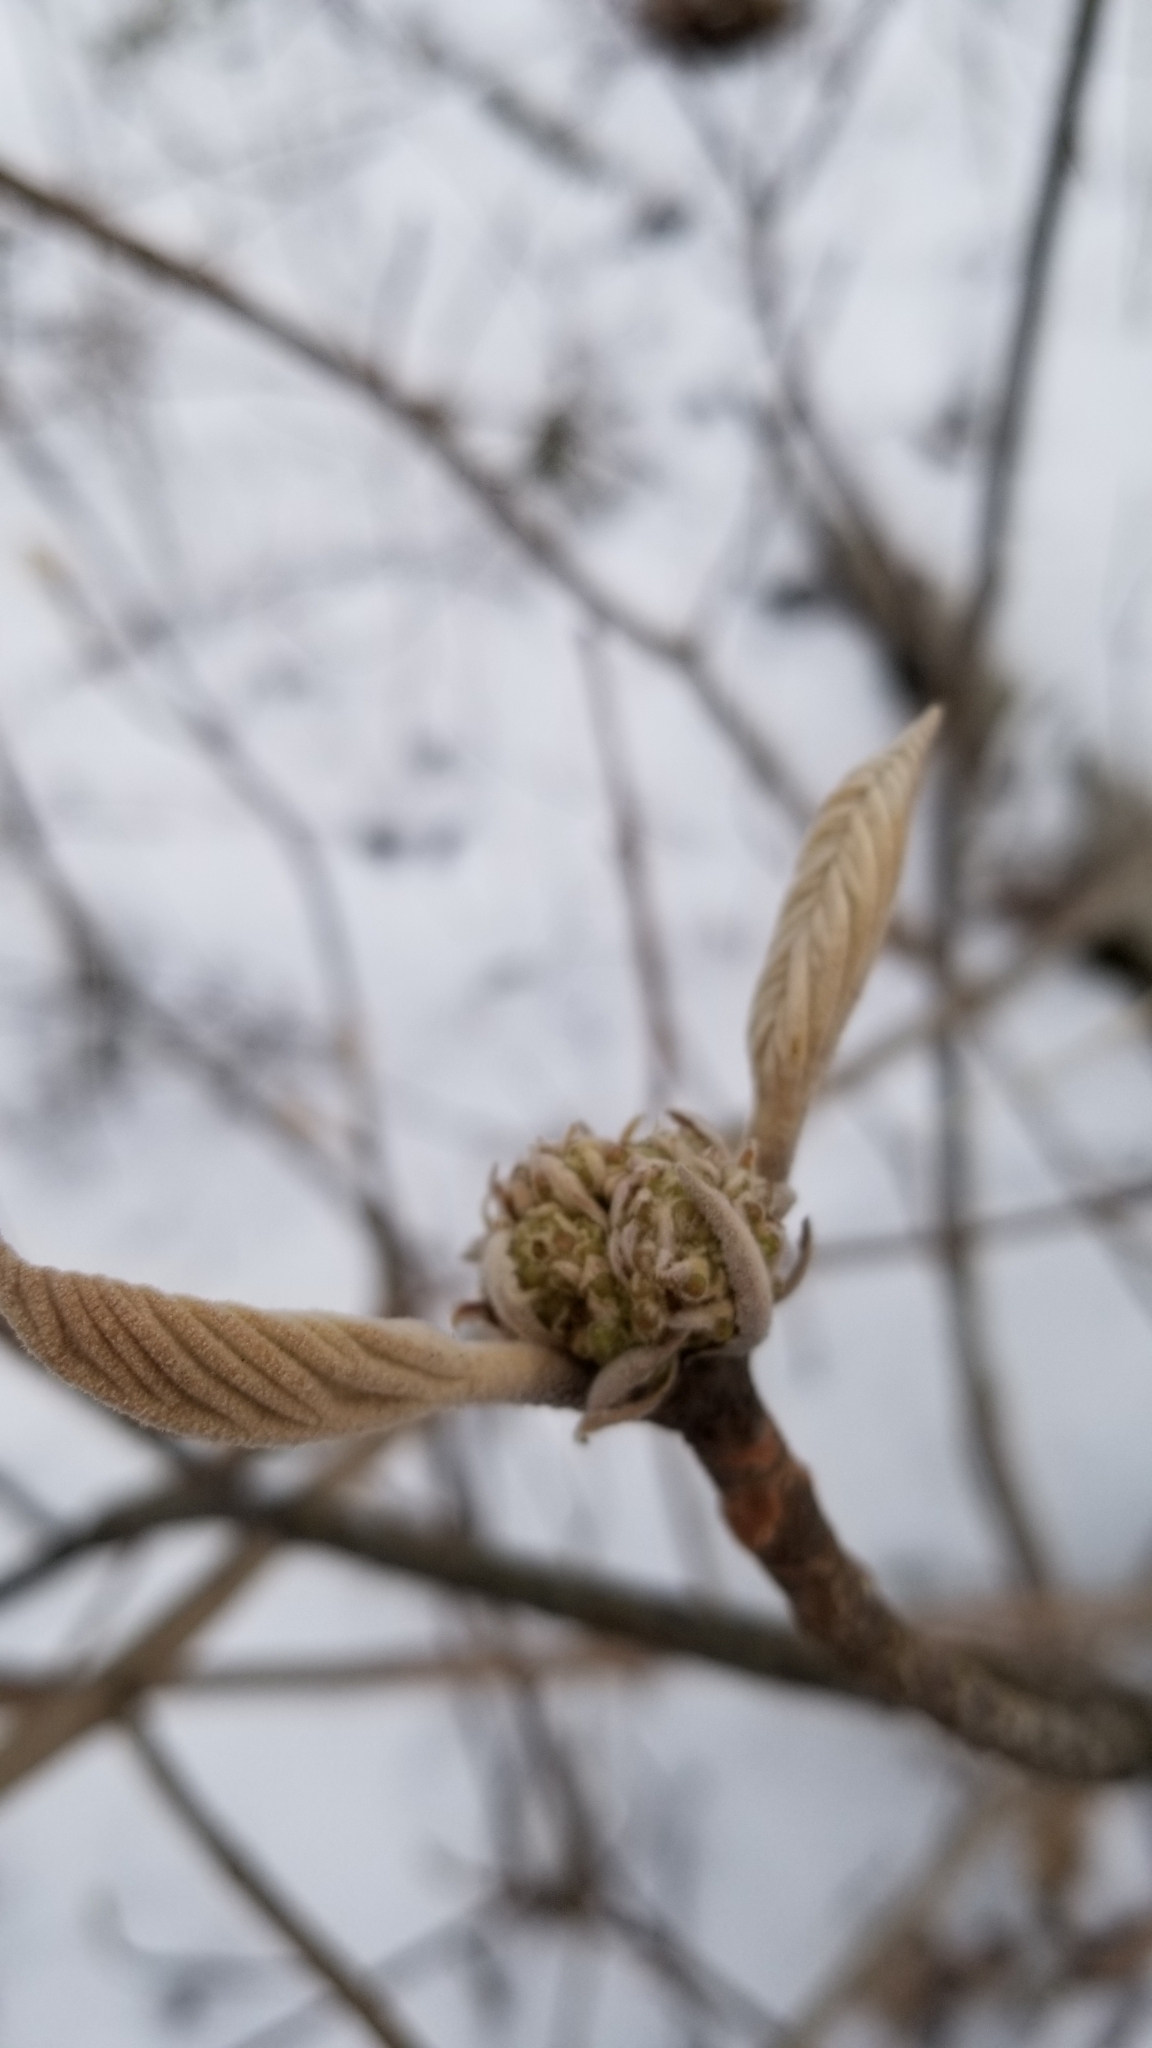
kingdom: Plantae
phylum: Tracheophyta
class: Magnoliopsida
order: Dipsacales
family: Viburnaceae
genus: Viburnum
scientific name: Viburnum lantanoides
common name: Hobblebush
